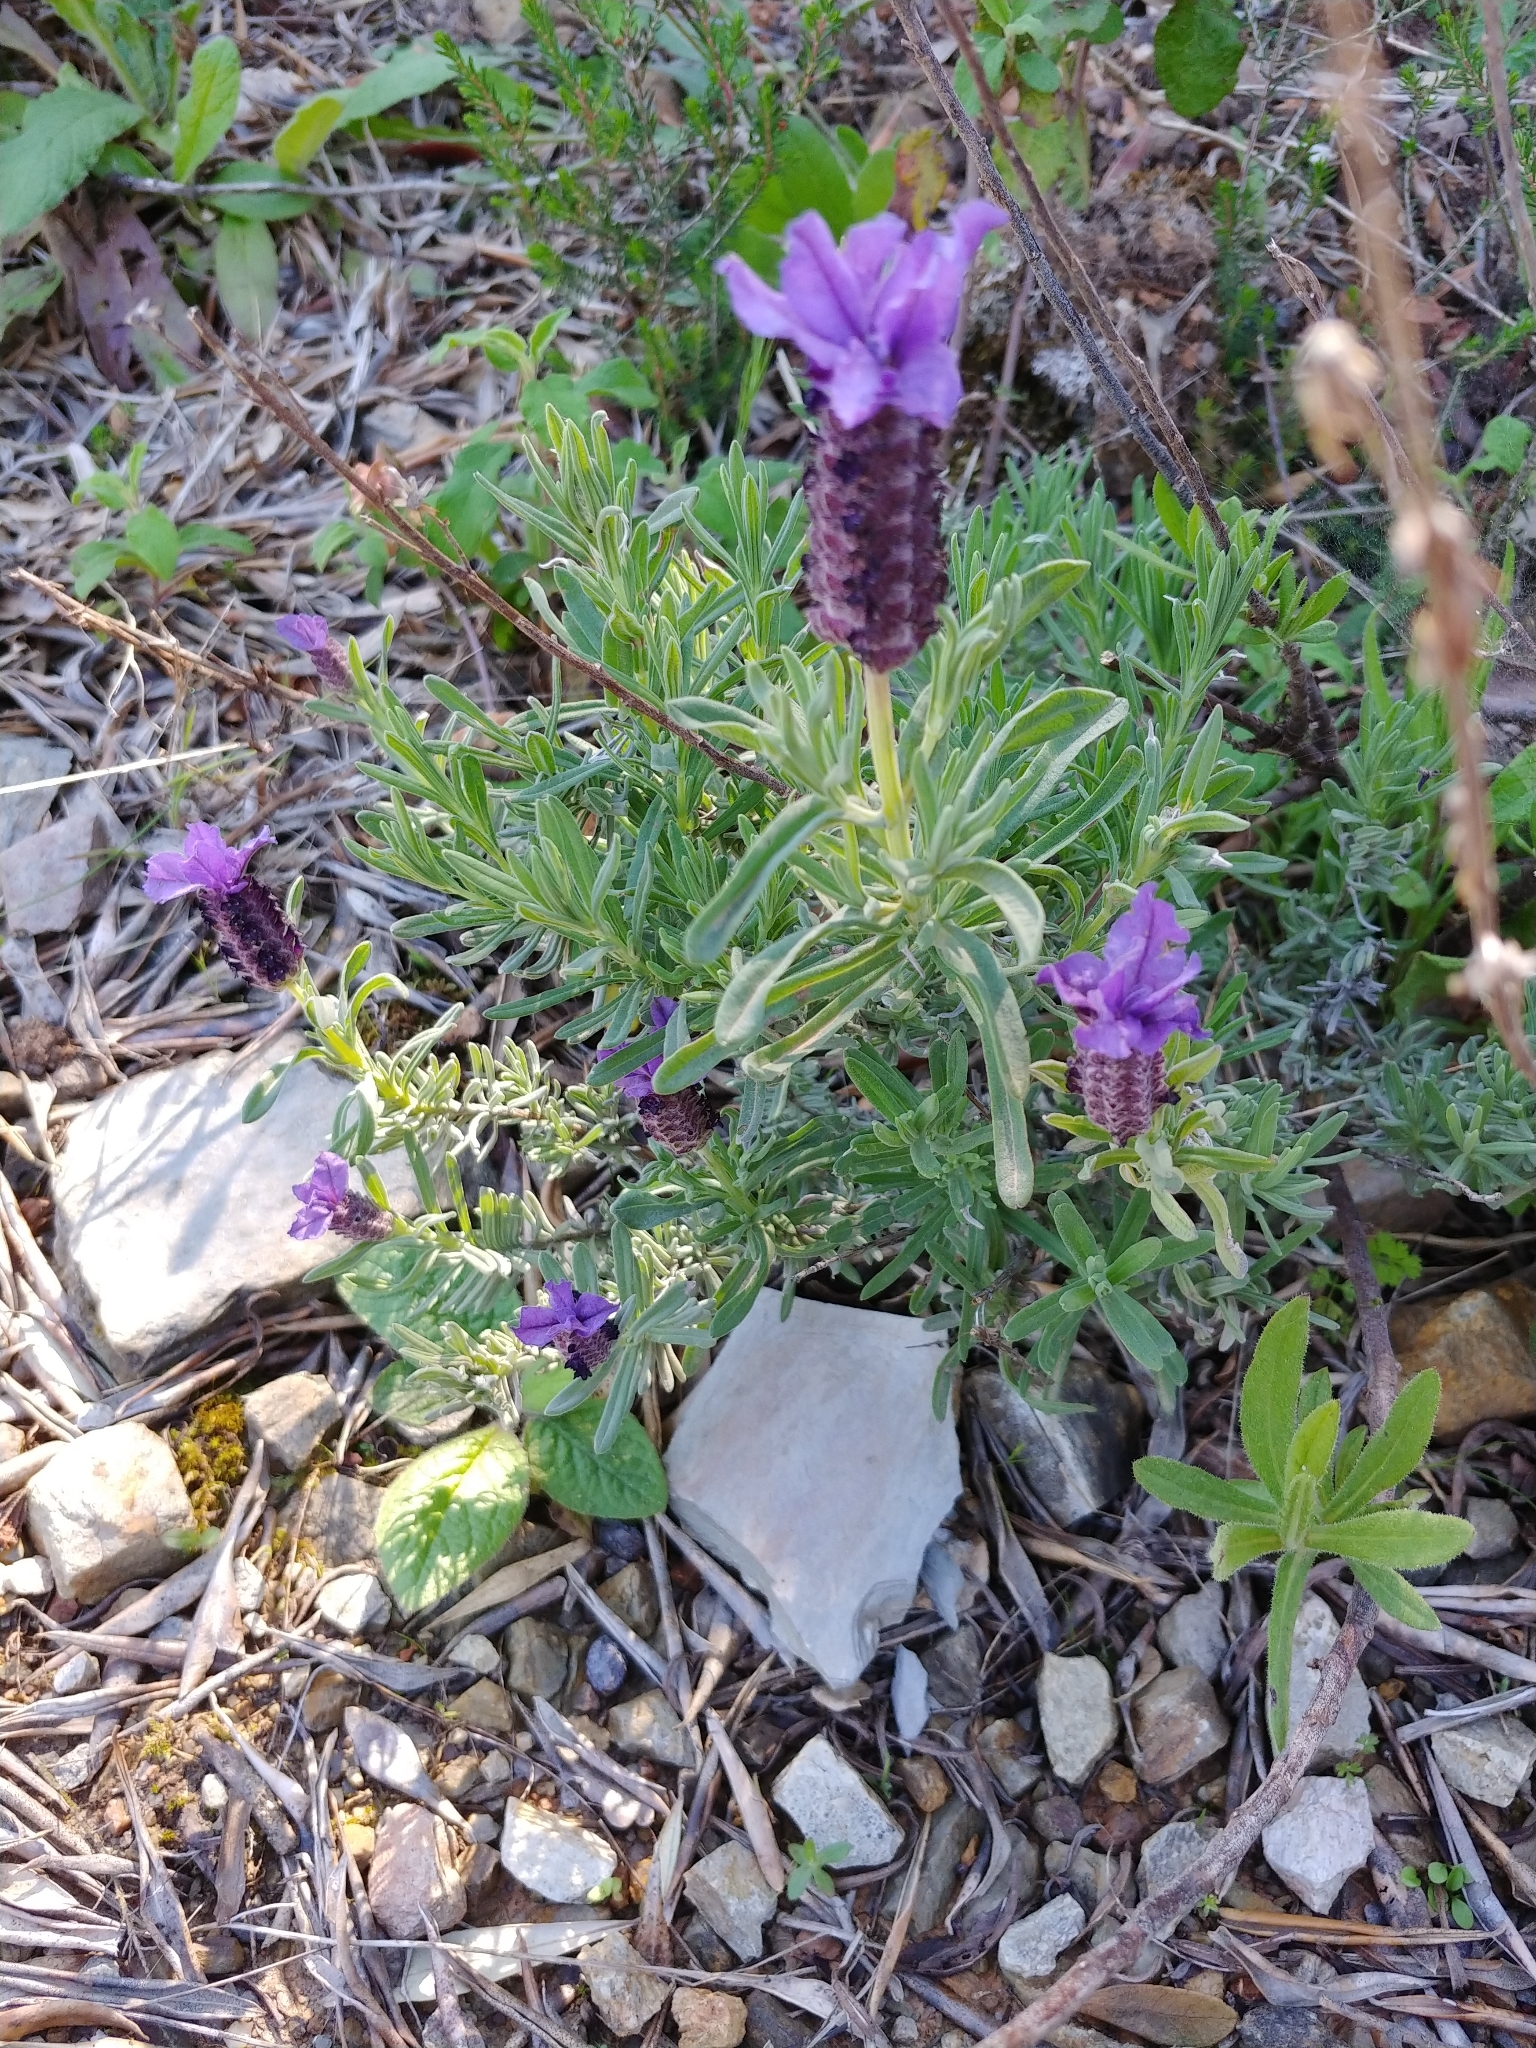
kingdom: Plantae
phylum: Tracheophyta
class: Magnoliopsida
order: Lamiales
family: Lamiaceae
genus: Lavandula
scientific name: Lavandula stoechas
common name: French lavender
